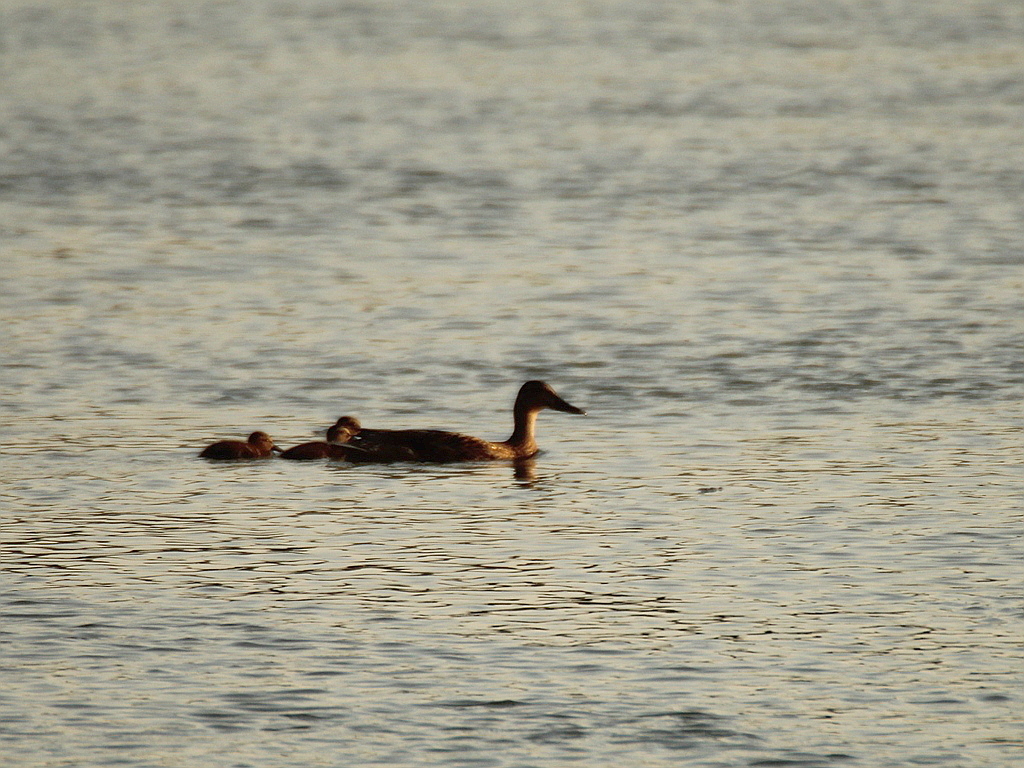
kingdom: Animalia
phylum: Chordata
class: Aves
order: Anseriformes
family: Anatidae
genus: Anas
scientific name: Anas platyrhynchos
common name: Mallard
